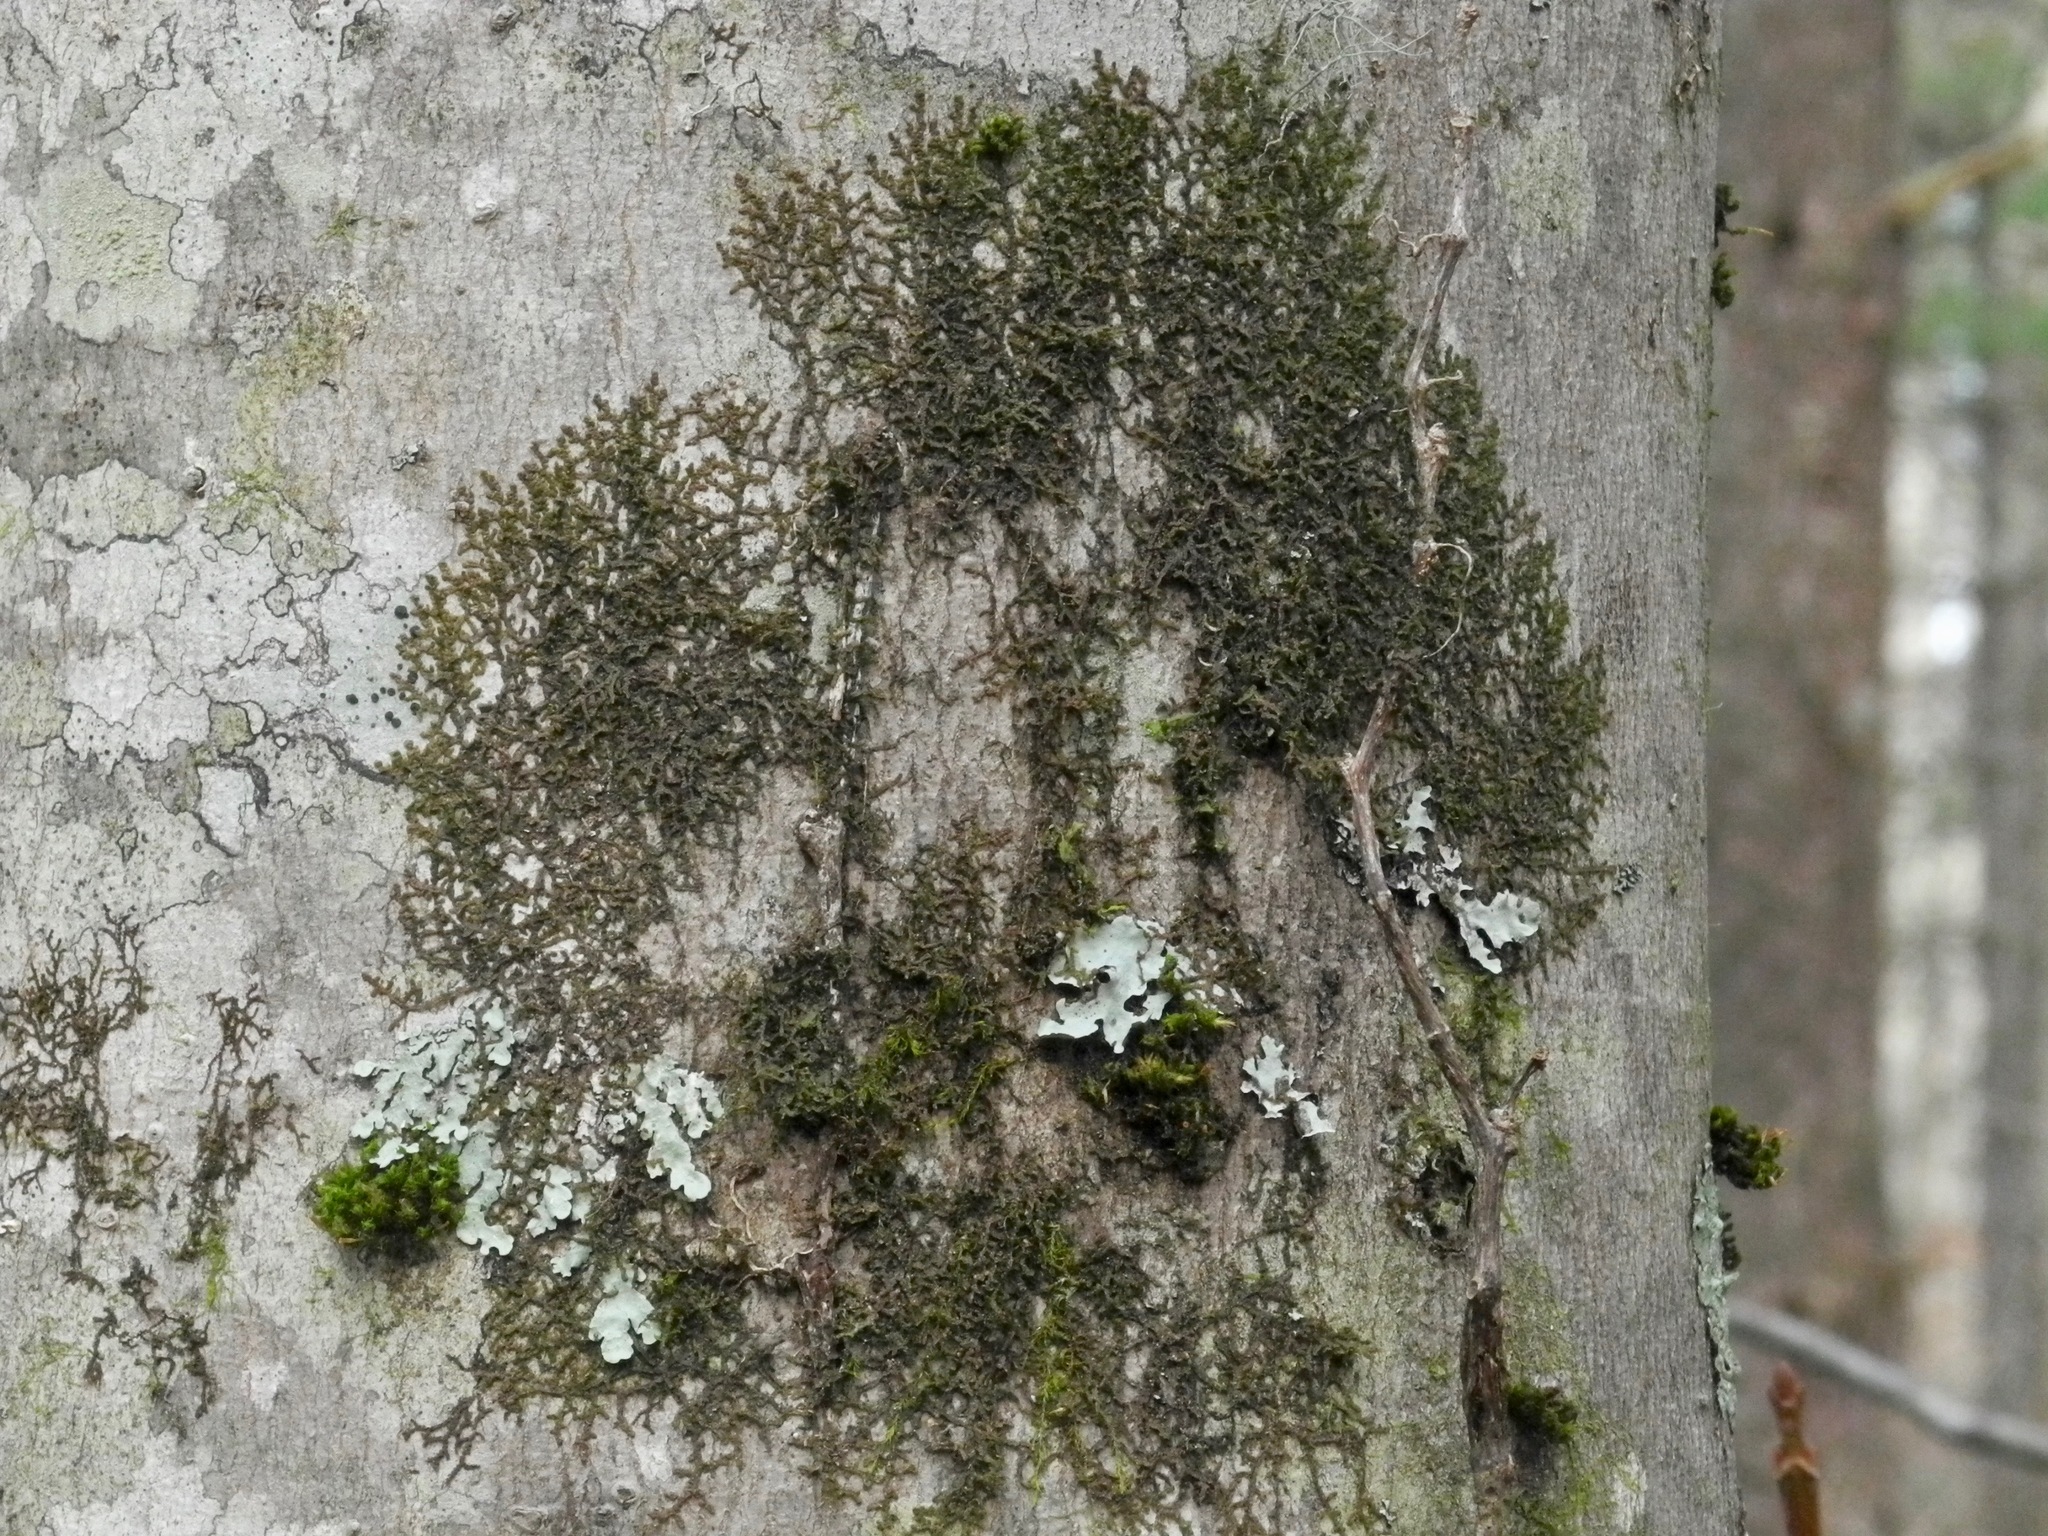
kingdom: Plantae
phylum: Marchantiophyta
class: Jungermanniopsida
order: Porellales
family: Frullaniaceae
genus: Frullania
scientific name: Frullania eboracensis
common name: New york scalewort
